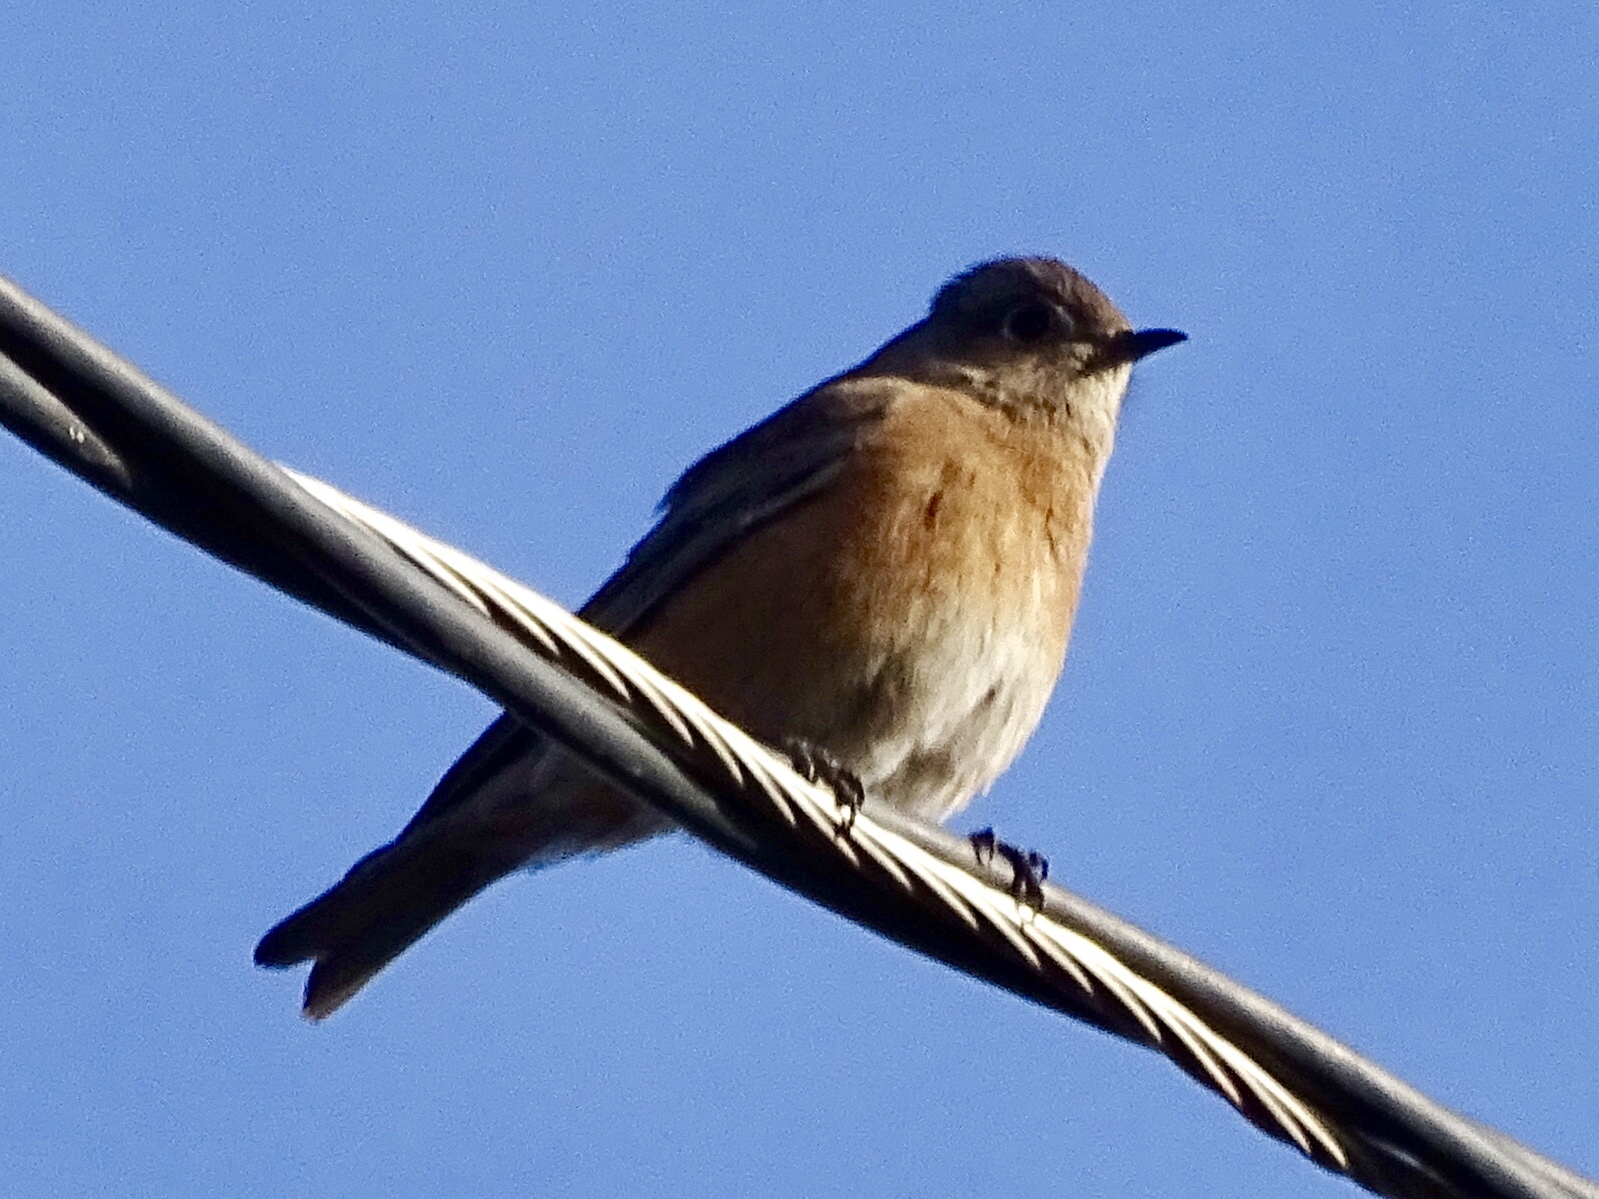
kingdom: Animalia
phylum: Chordata
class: Aves
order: Passeriformes
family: Turdidae
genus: Sialia
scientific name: Sialia mexicana
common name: Western bluebird
